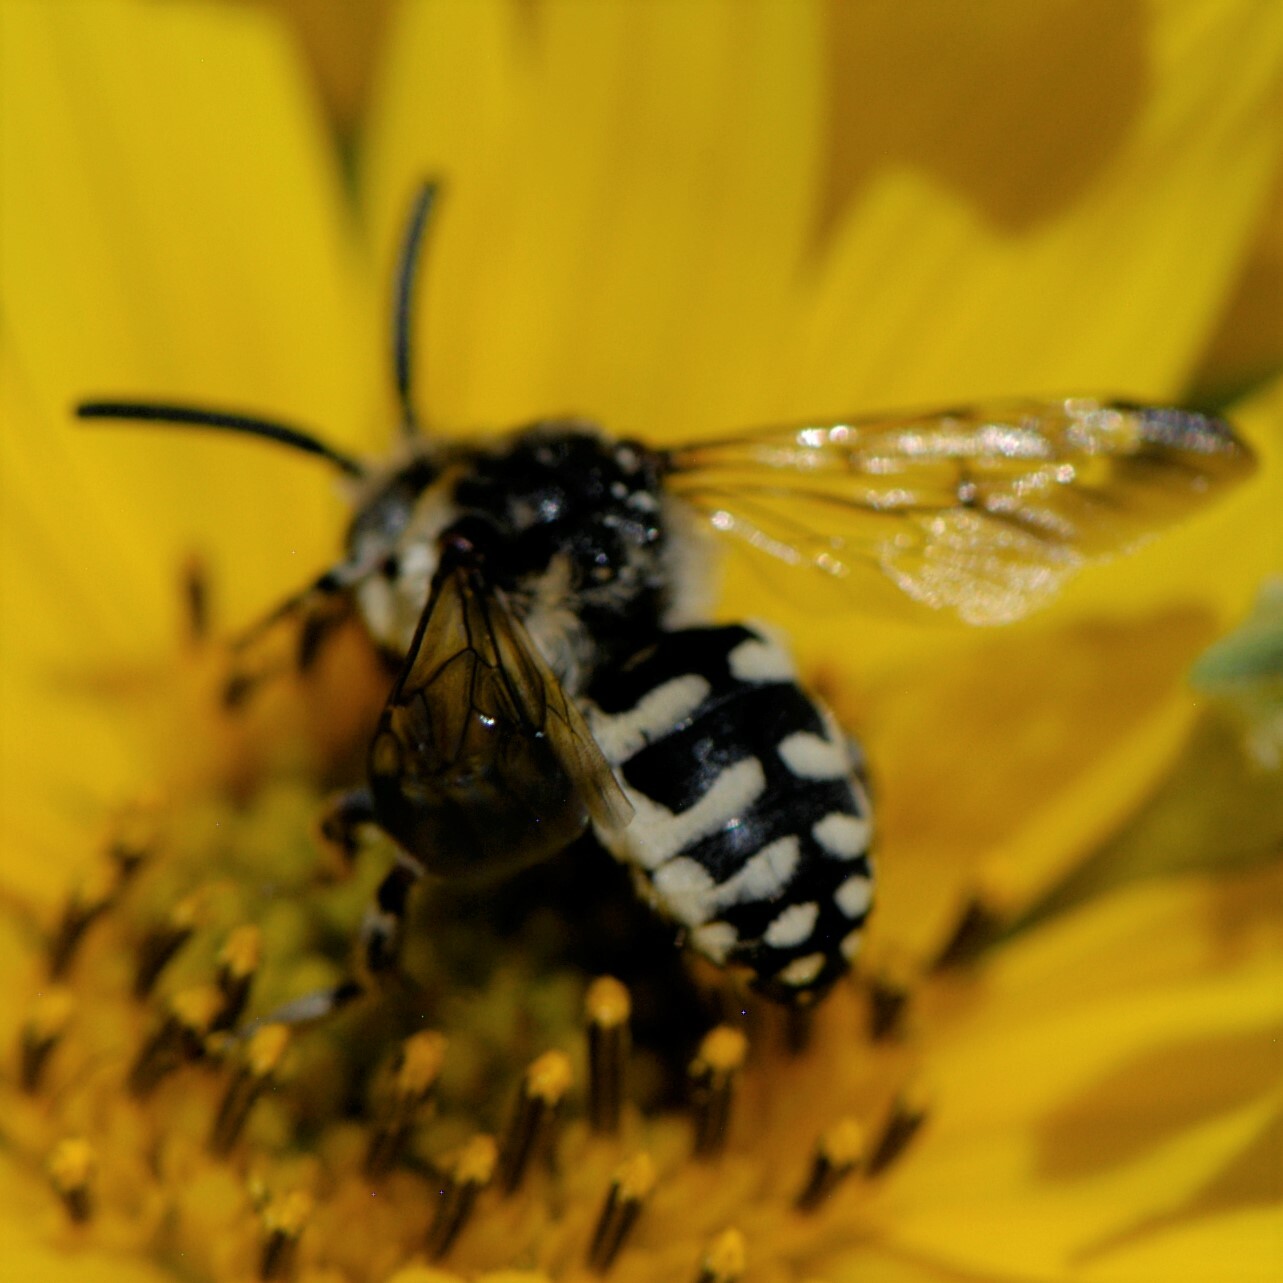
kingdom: Animalia
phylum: Arthropoda
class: Insecta
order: Hymenoptera
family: Apidae
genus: Brachymelecta
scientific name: Brachymelecta californica
